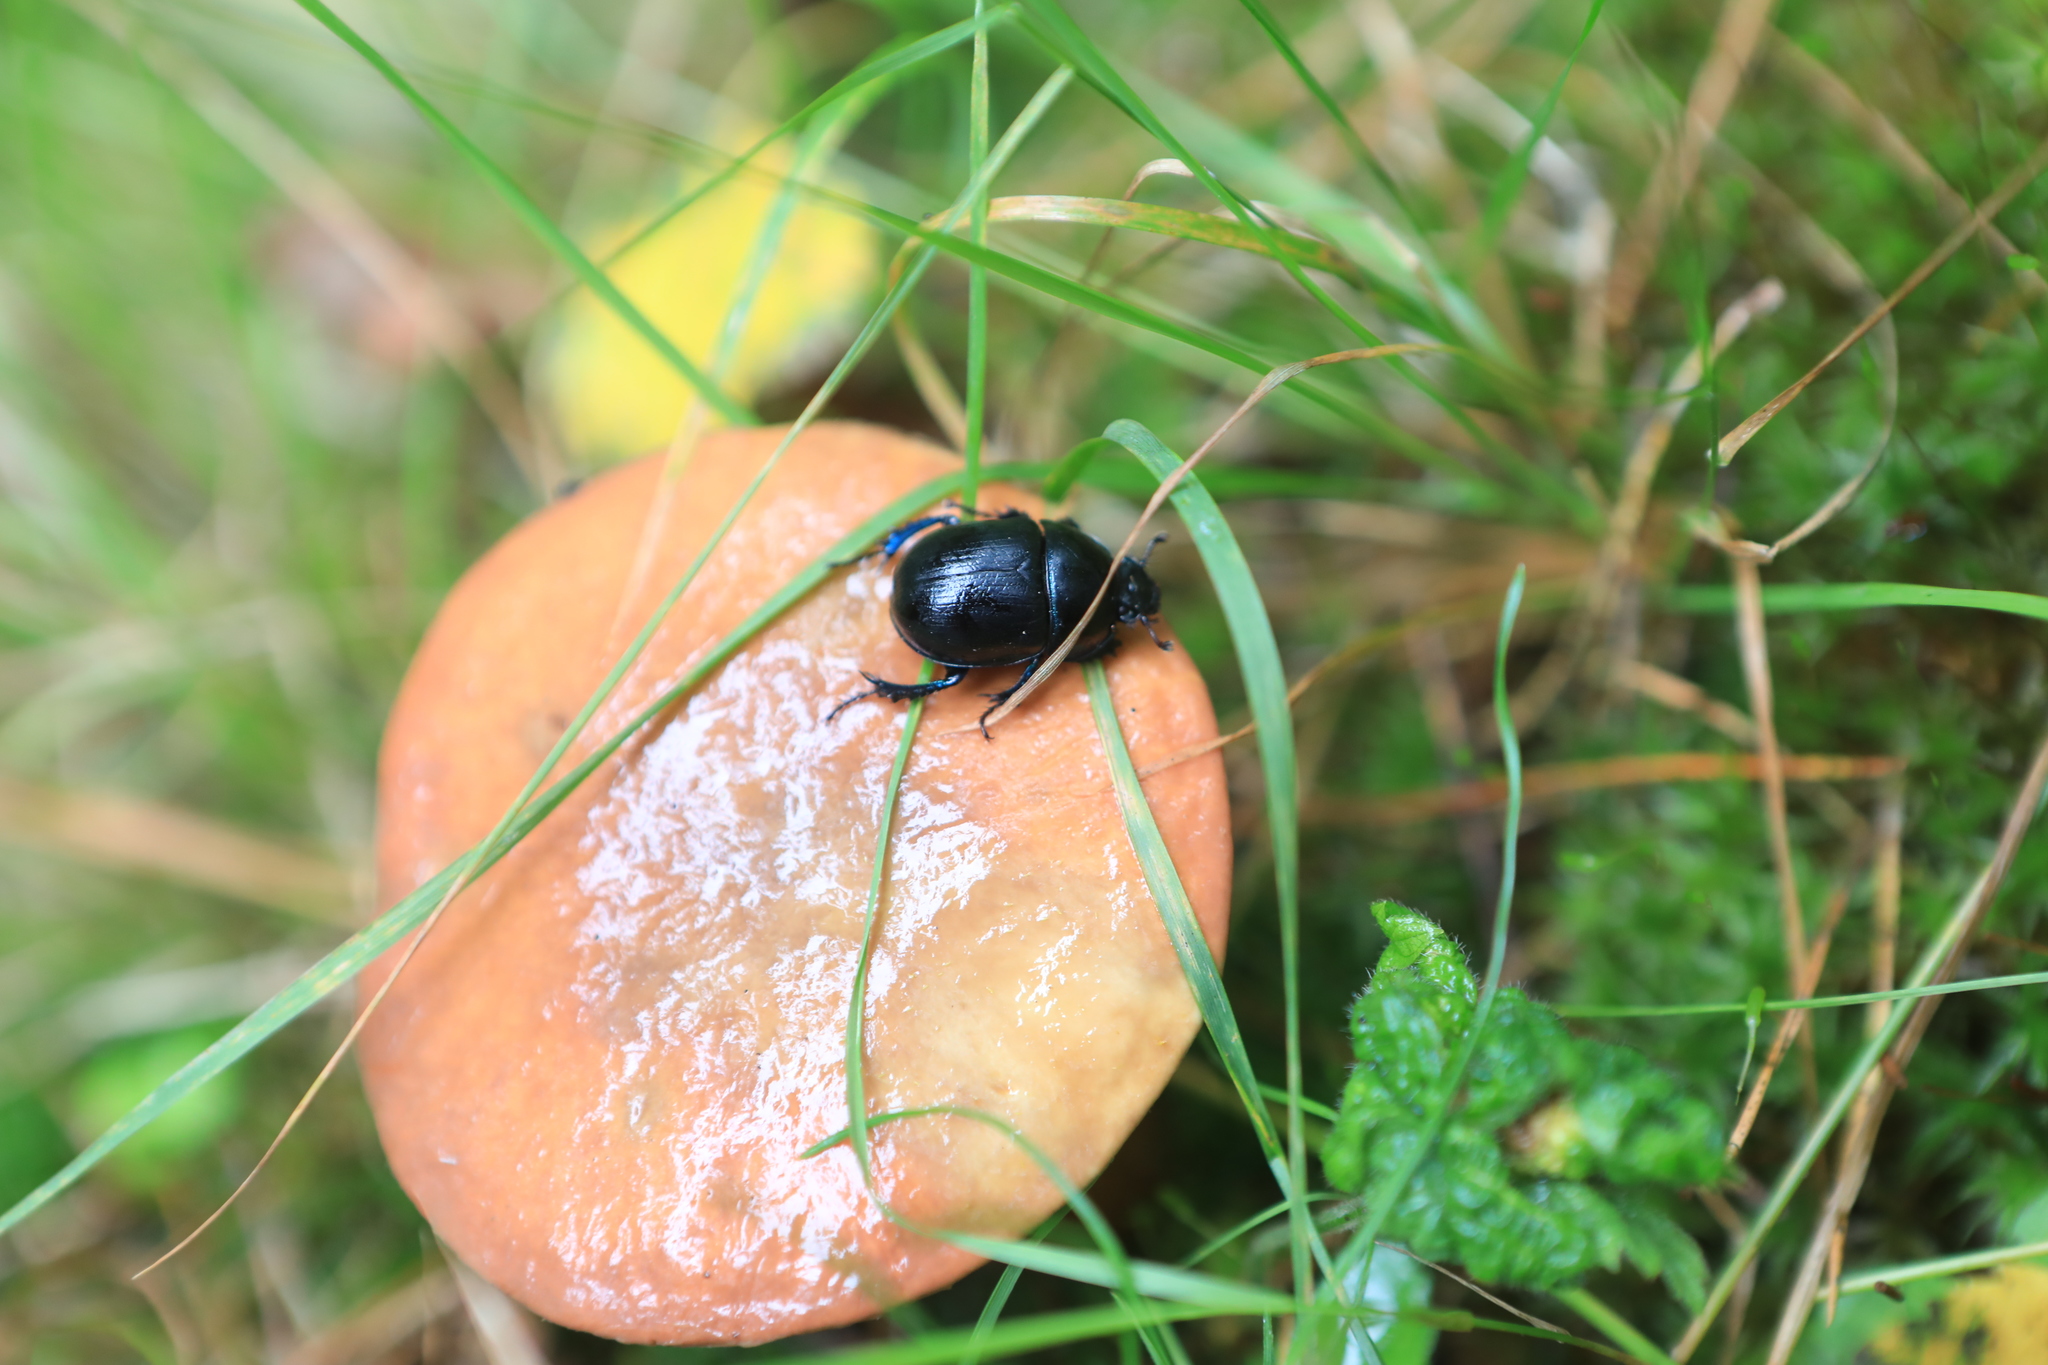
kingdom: Animalia
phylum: Arthropoda
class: Insecta
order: Coleoptera
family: Geotrupidae
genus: Anoplotrupes
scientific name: Anoplotrupes stercorosus
